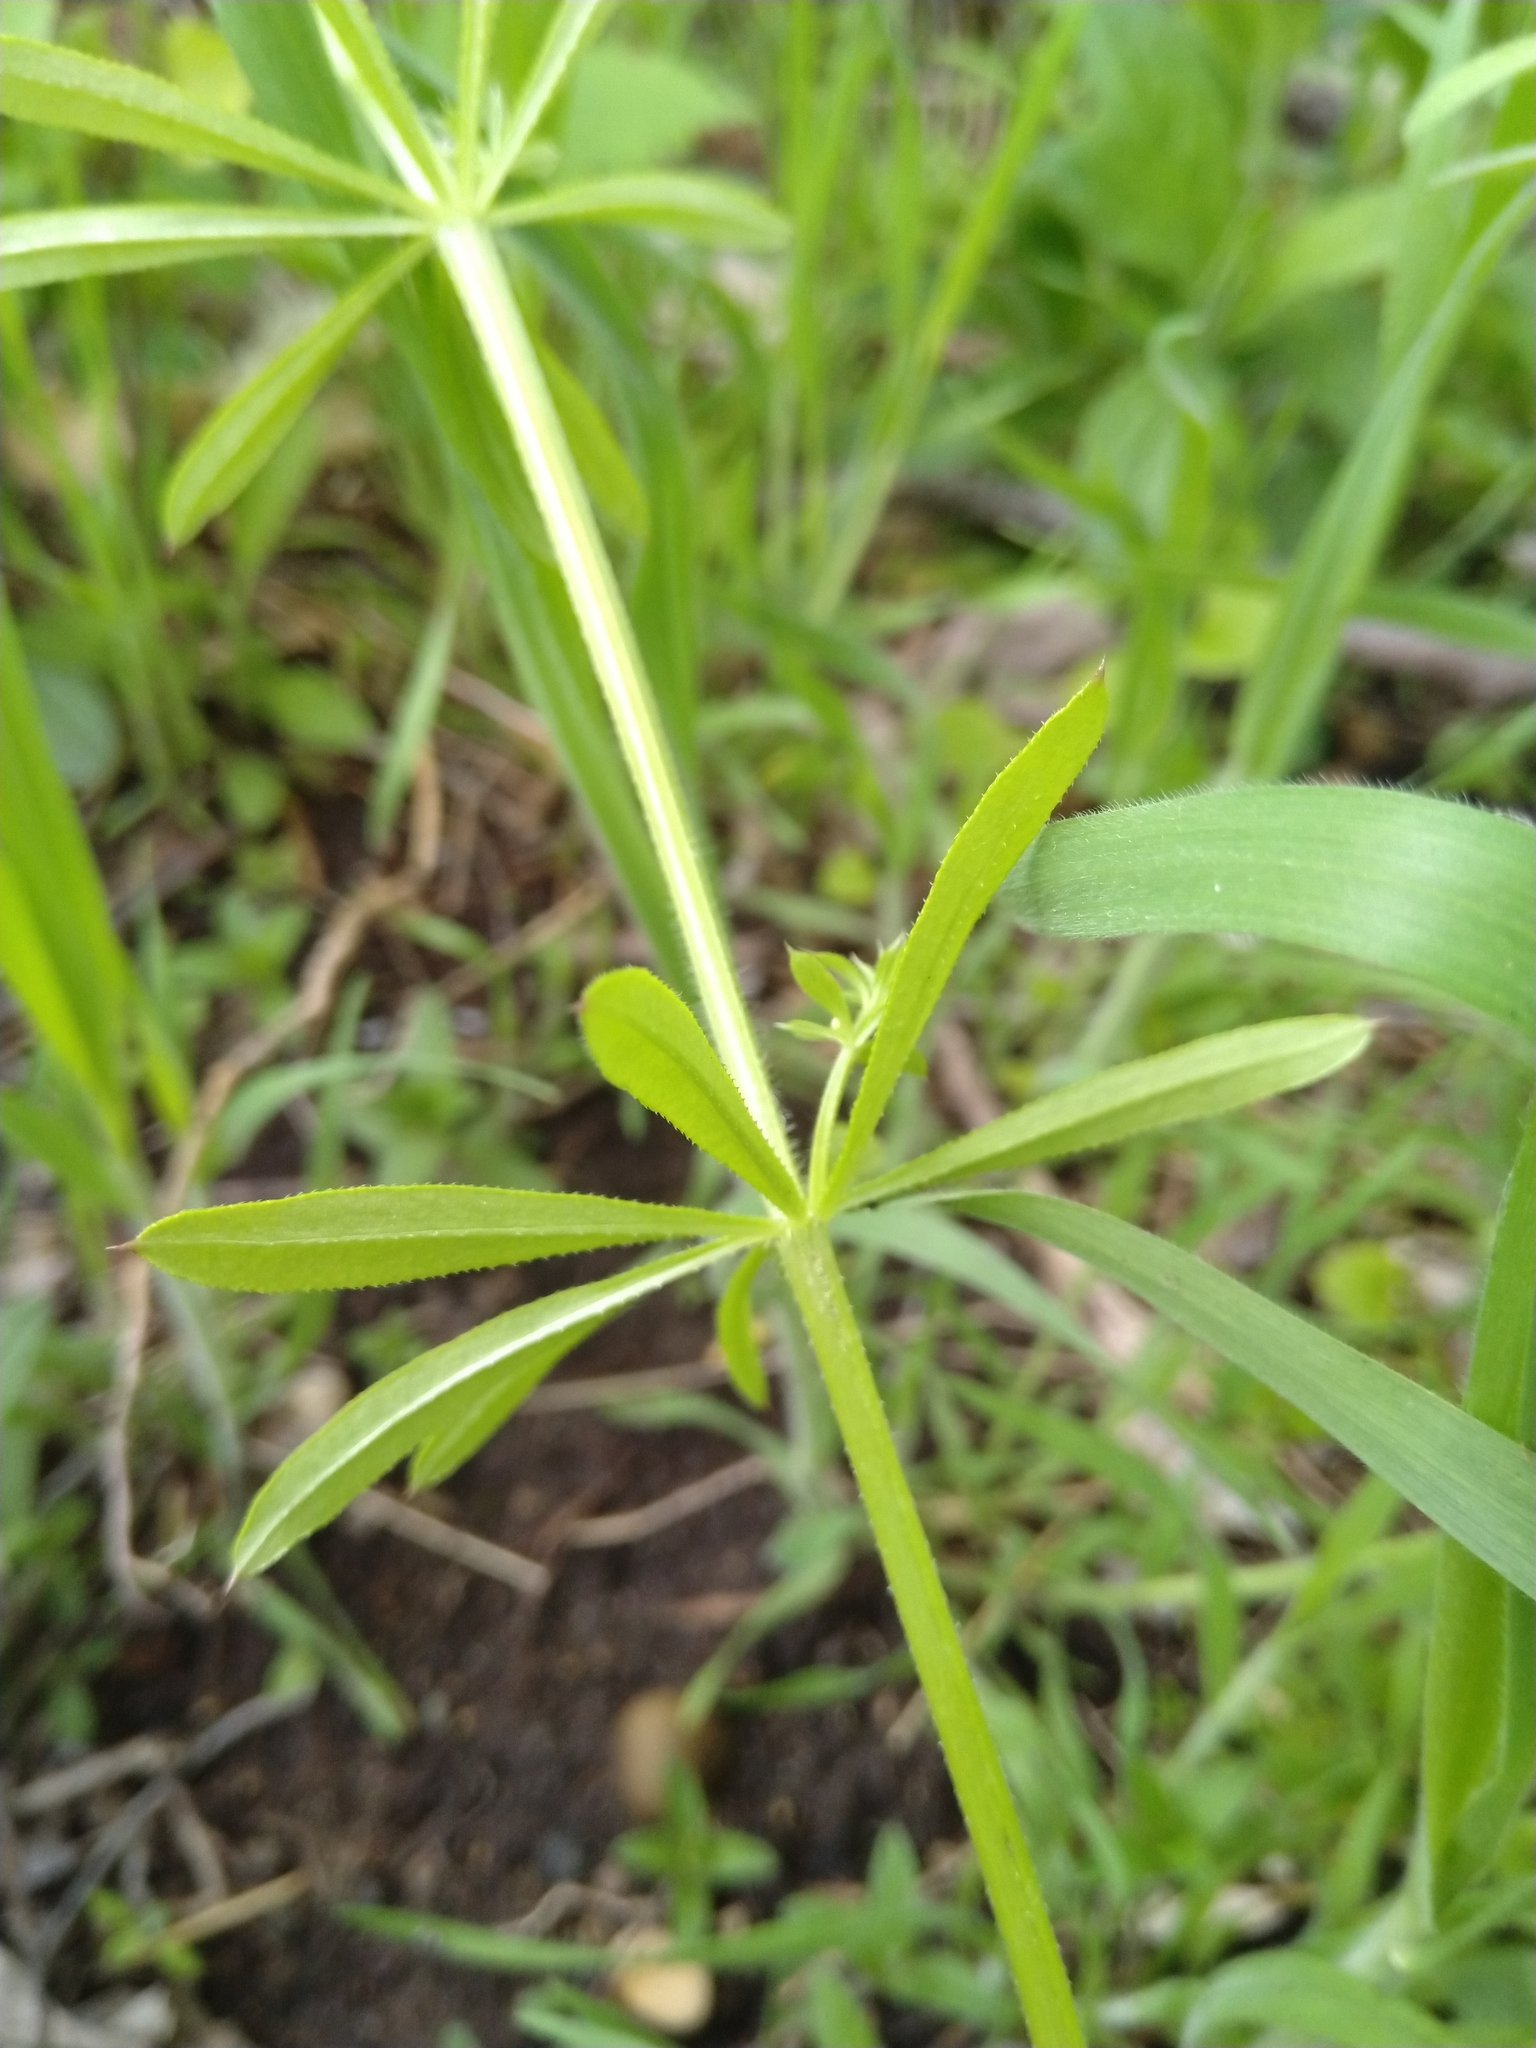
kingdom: Plantae
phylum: Tracheophyta
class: Magnoliopsida
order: Gentianales
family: Rubiaceae
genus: Galium
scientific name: Galium aparine
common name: Cleavers
